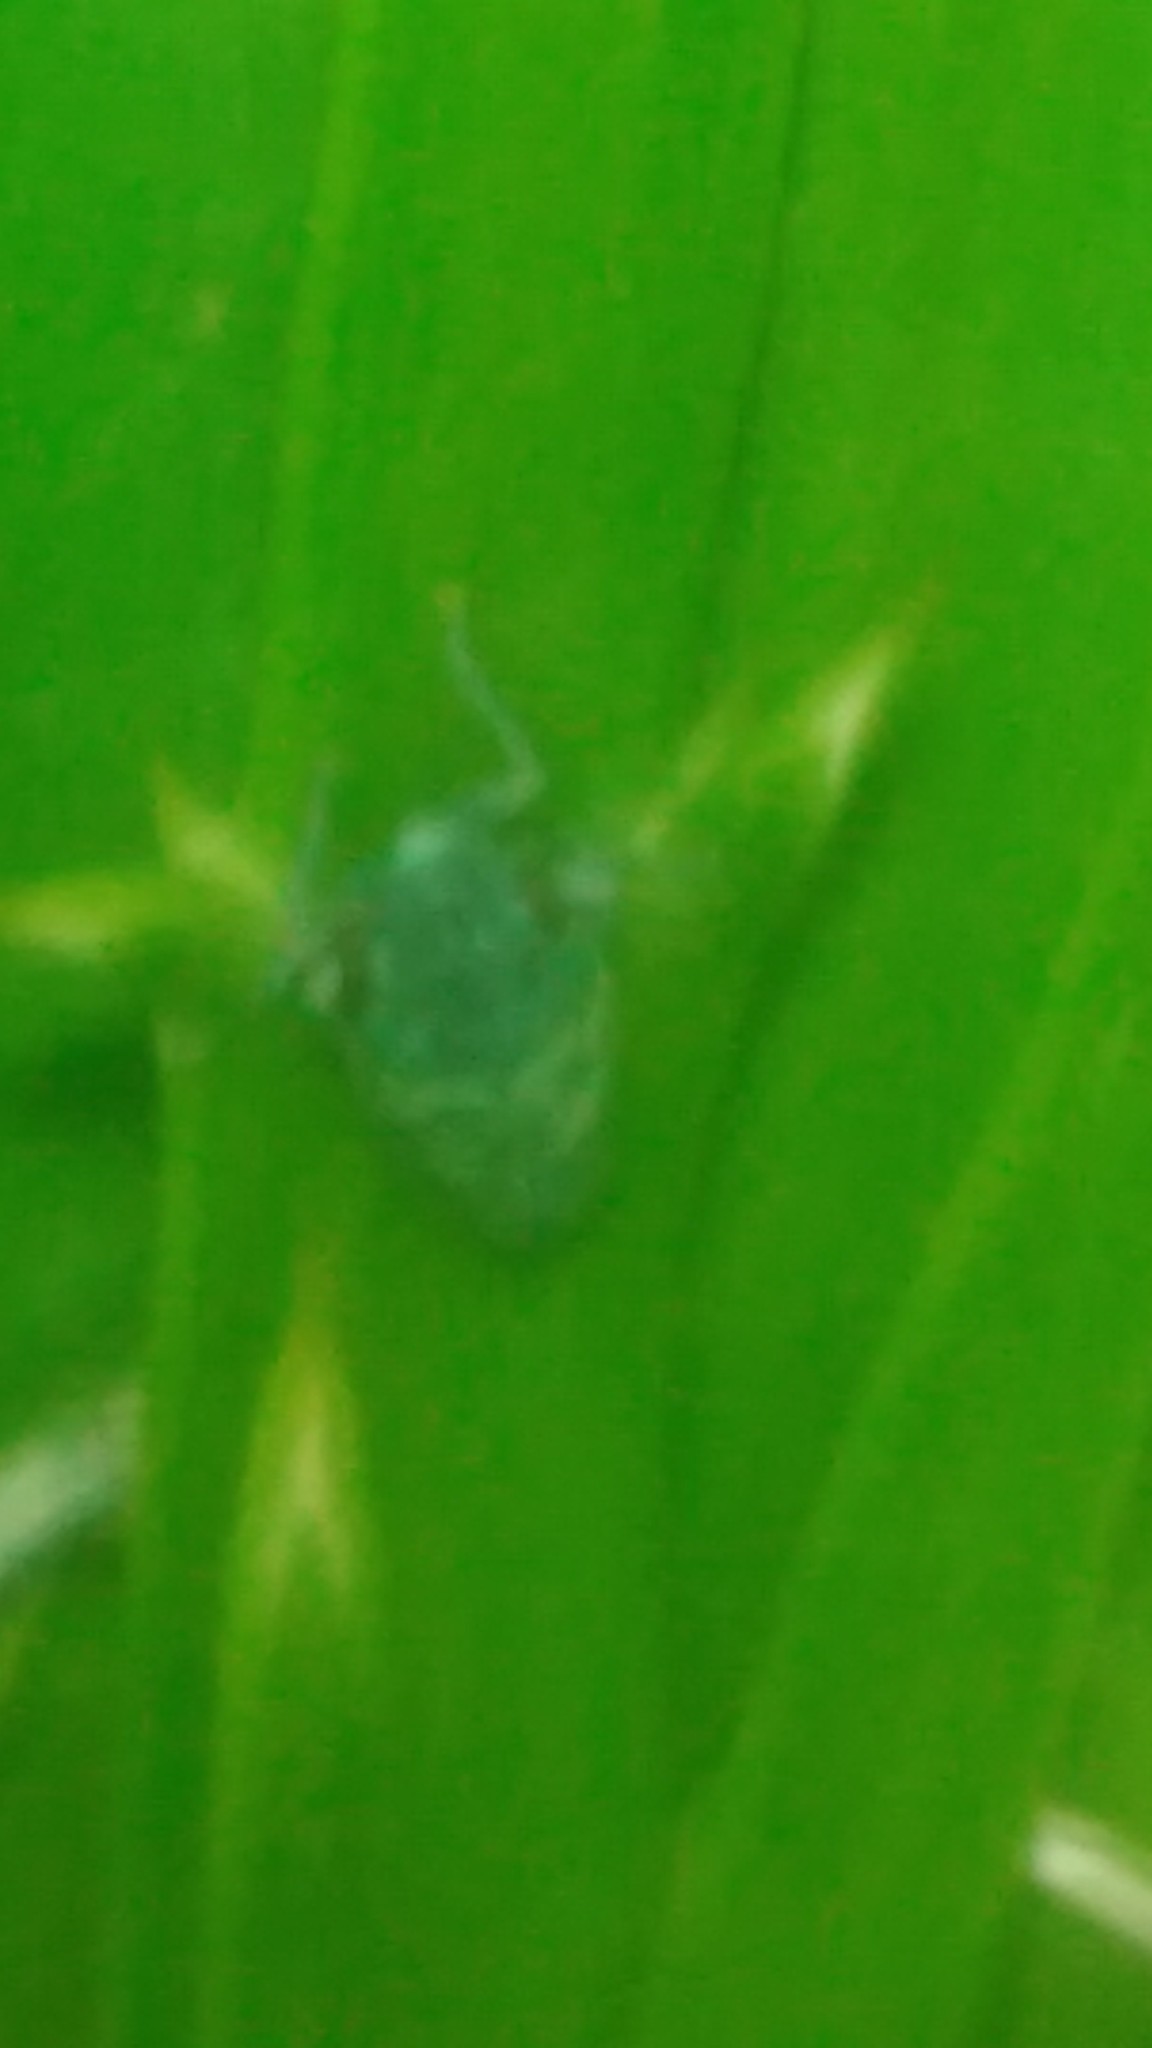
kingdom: Animalia
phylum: Arthropoda
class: Insecta
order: Hemiptera
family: Cicadellidae
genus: Balacha
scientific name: Balacha similis
